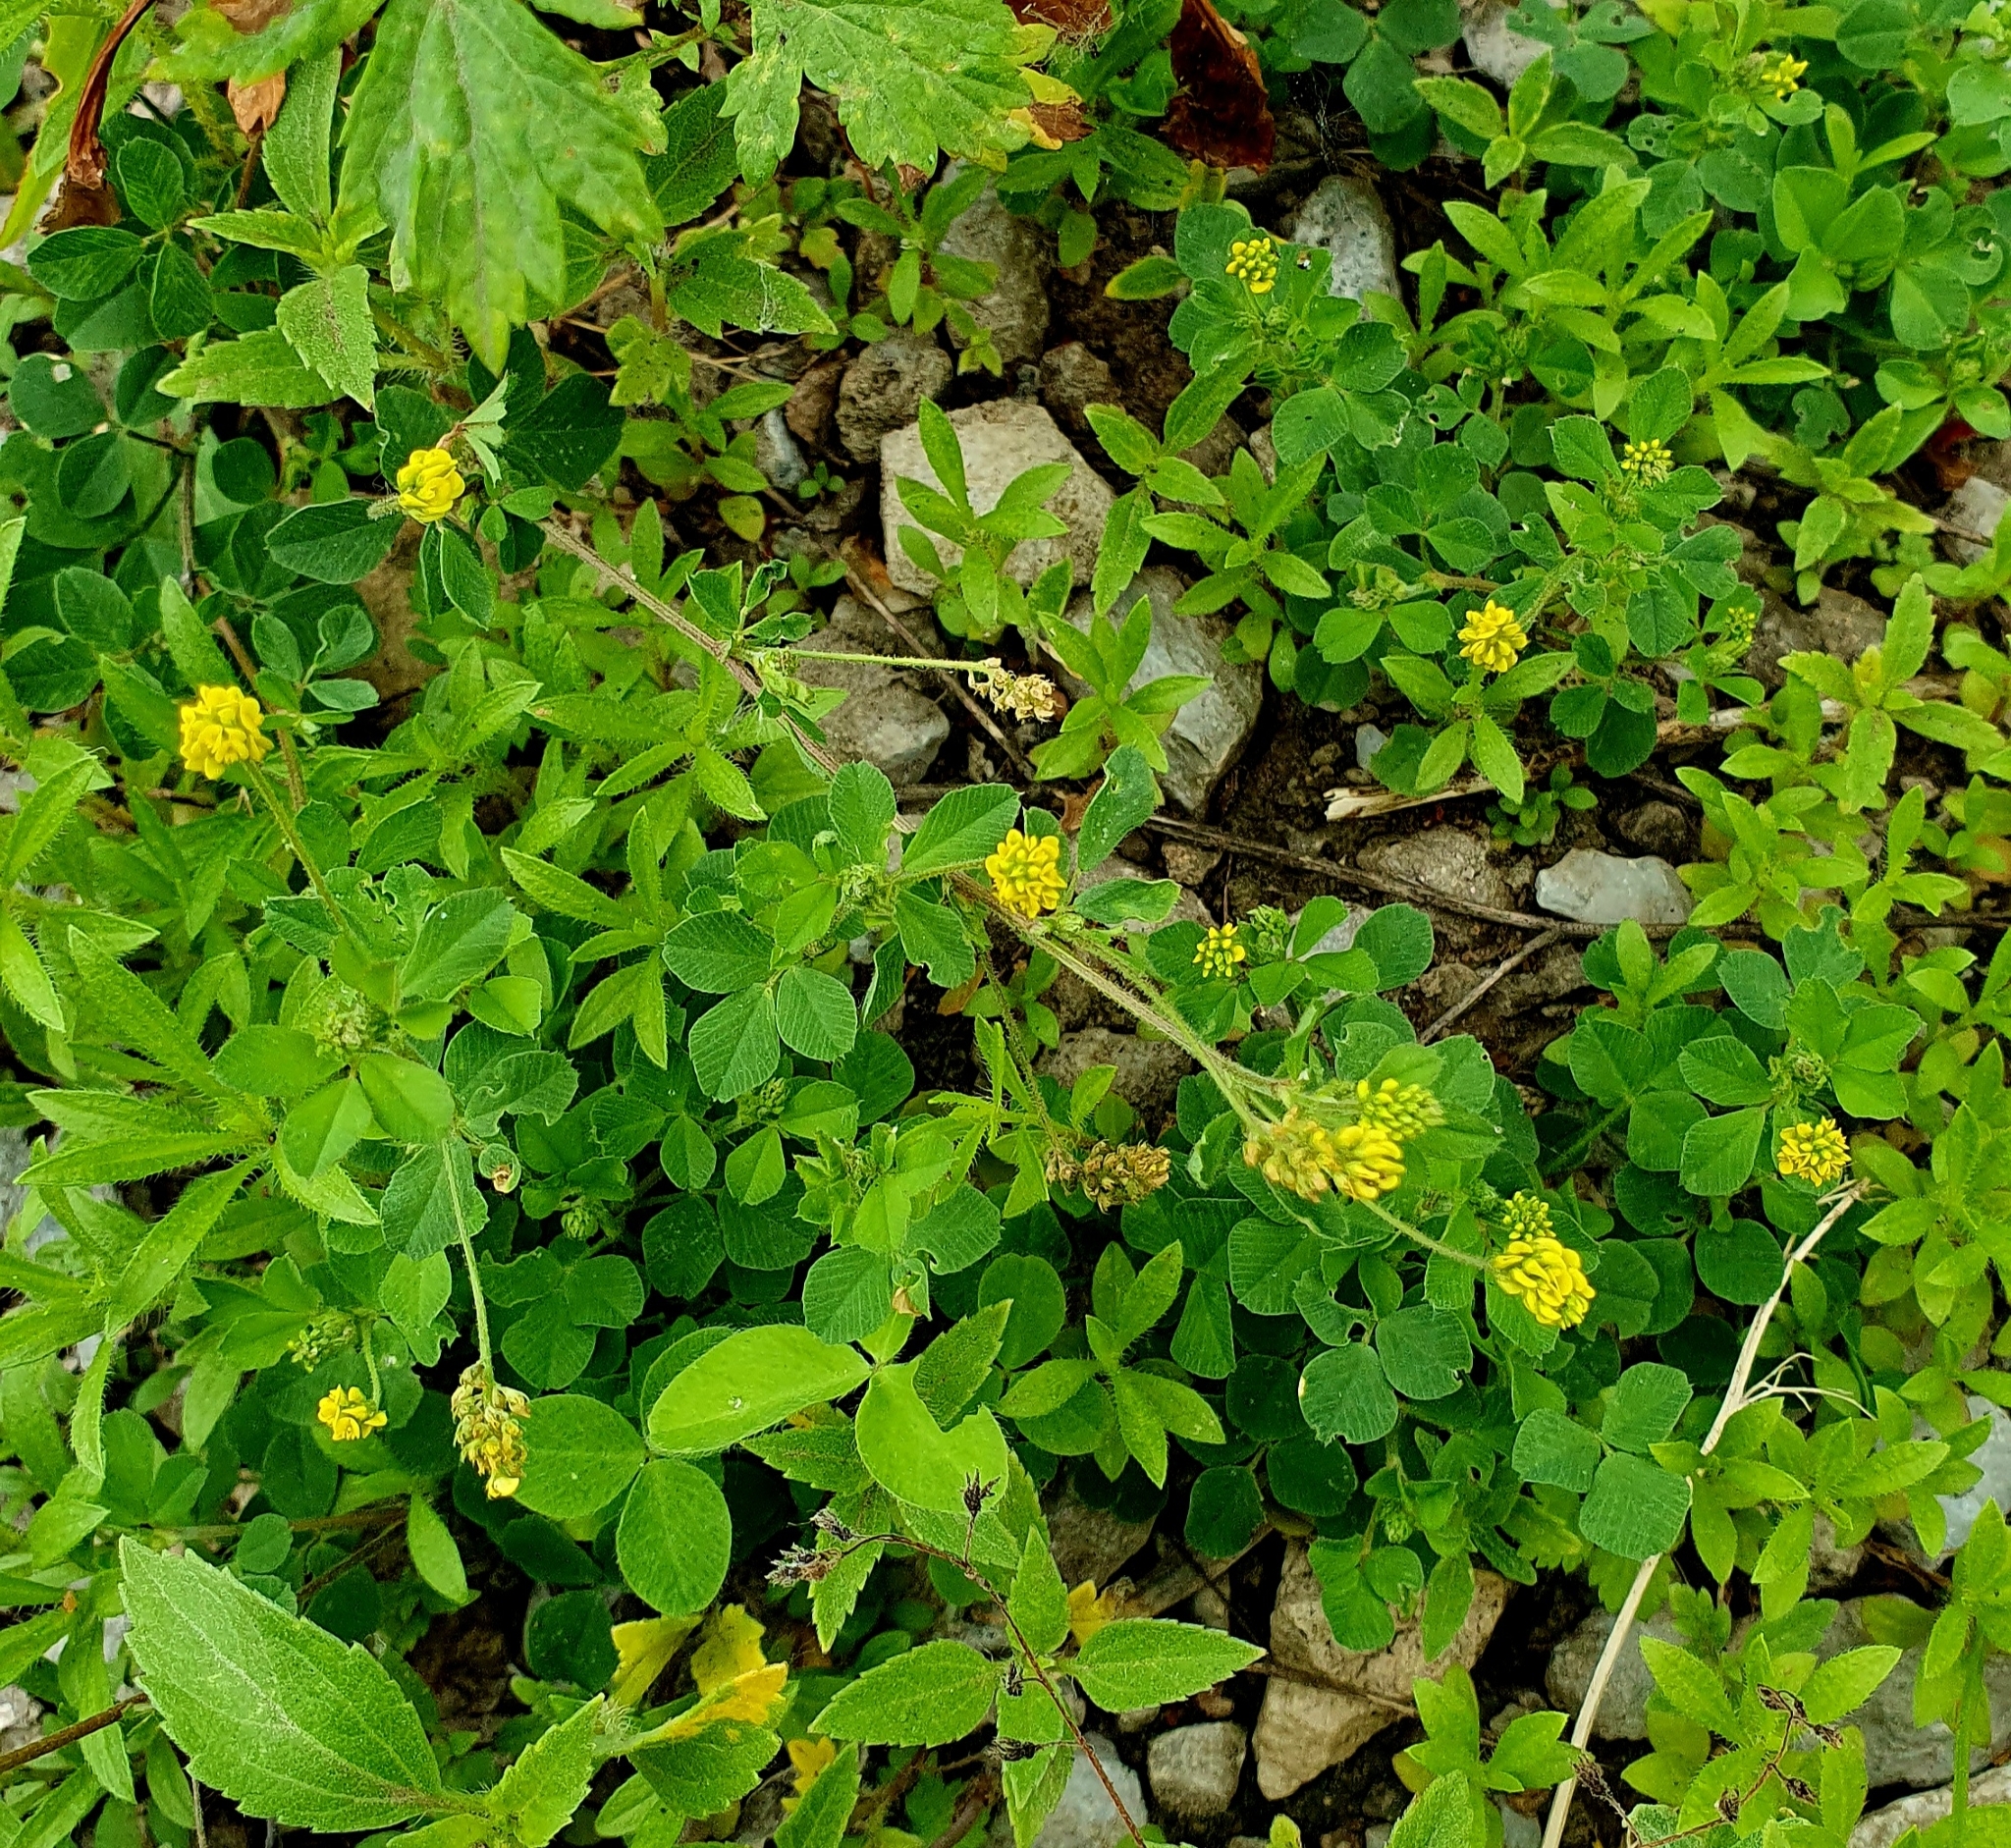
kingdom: Plantae
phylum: Tracheophyta
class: Magnoliopsida
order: Fabales
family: Fabaceae
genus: Medicago
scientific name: Medicago lupulina
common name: Black medick
